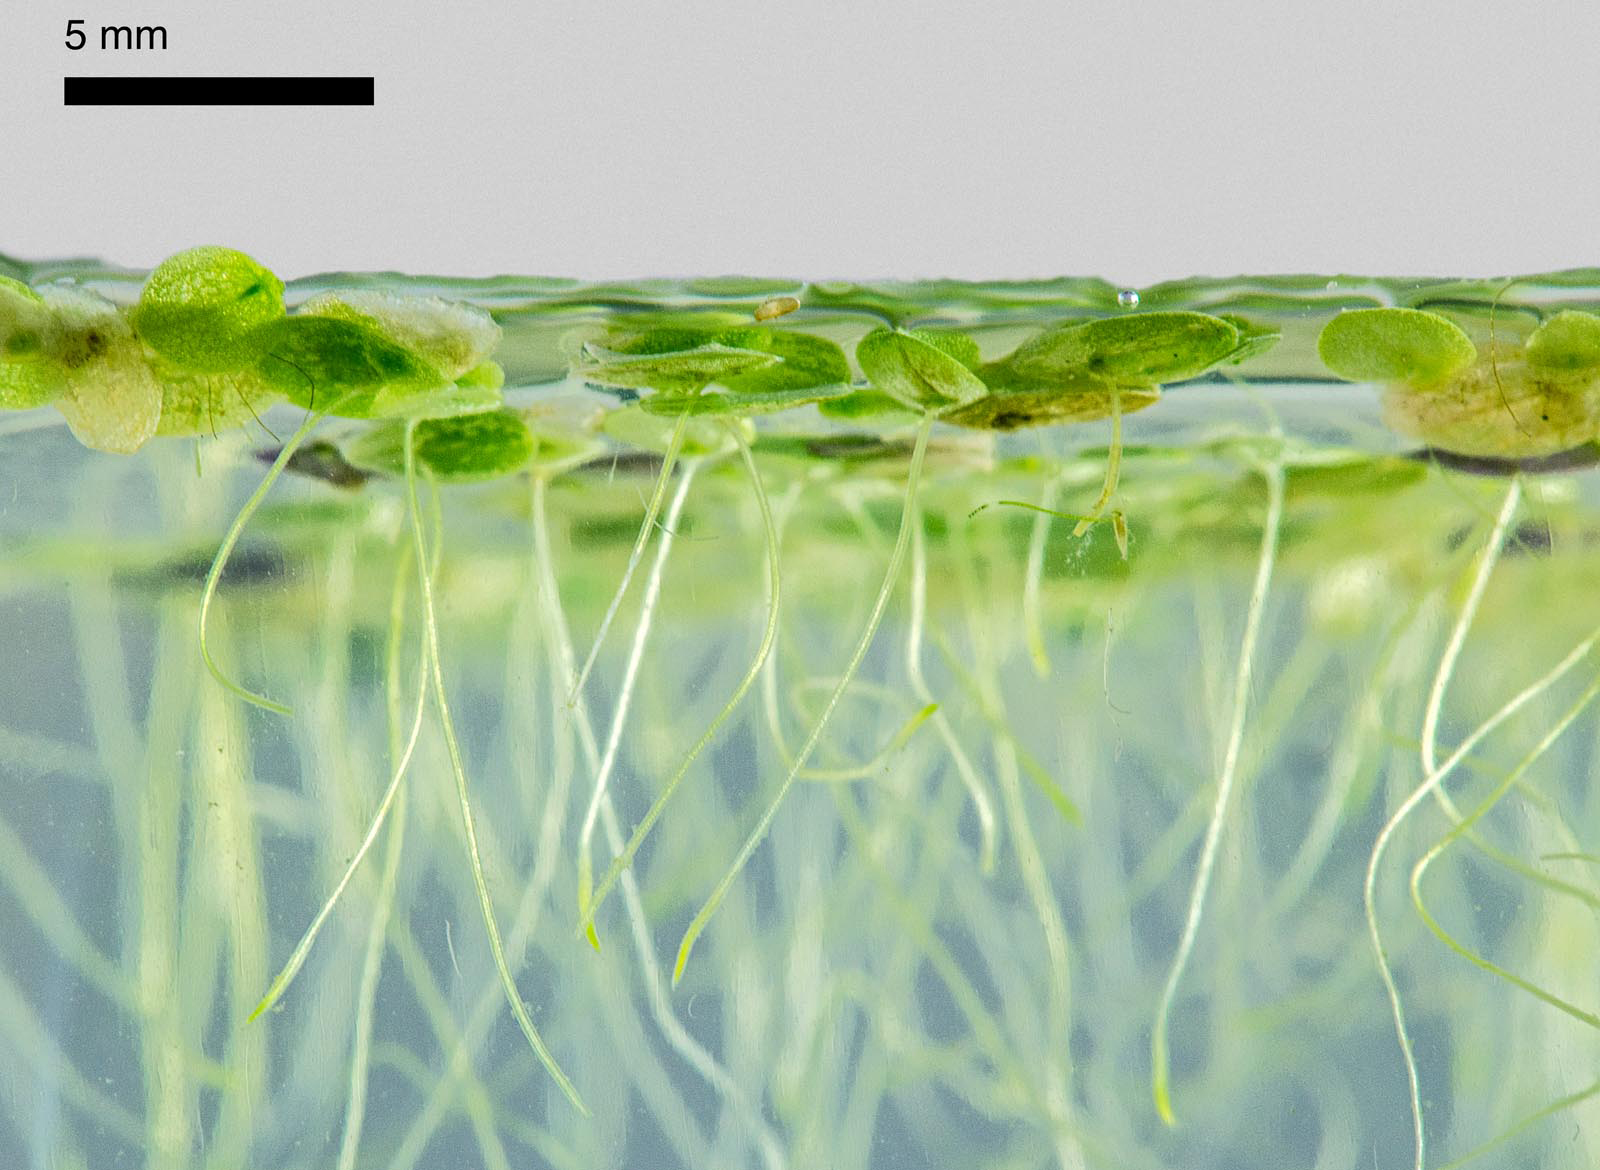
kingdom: Plantae
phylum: Tracheophyta
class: Liliopsida
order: Alismatales
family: Araceae
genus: Lemna
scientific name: Lemna aequinoctialis
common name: Duckweed
